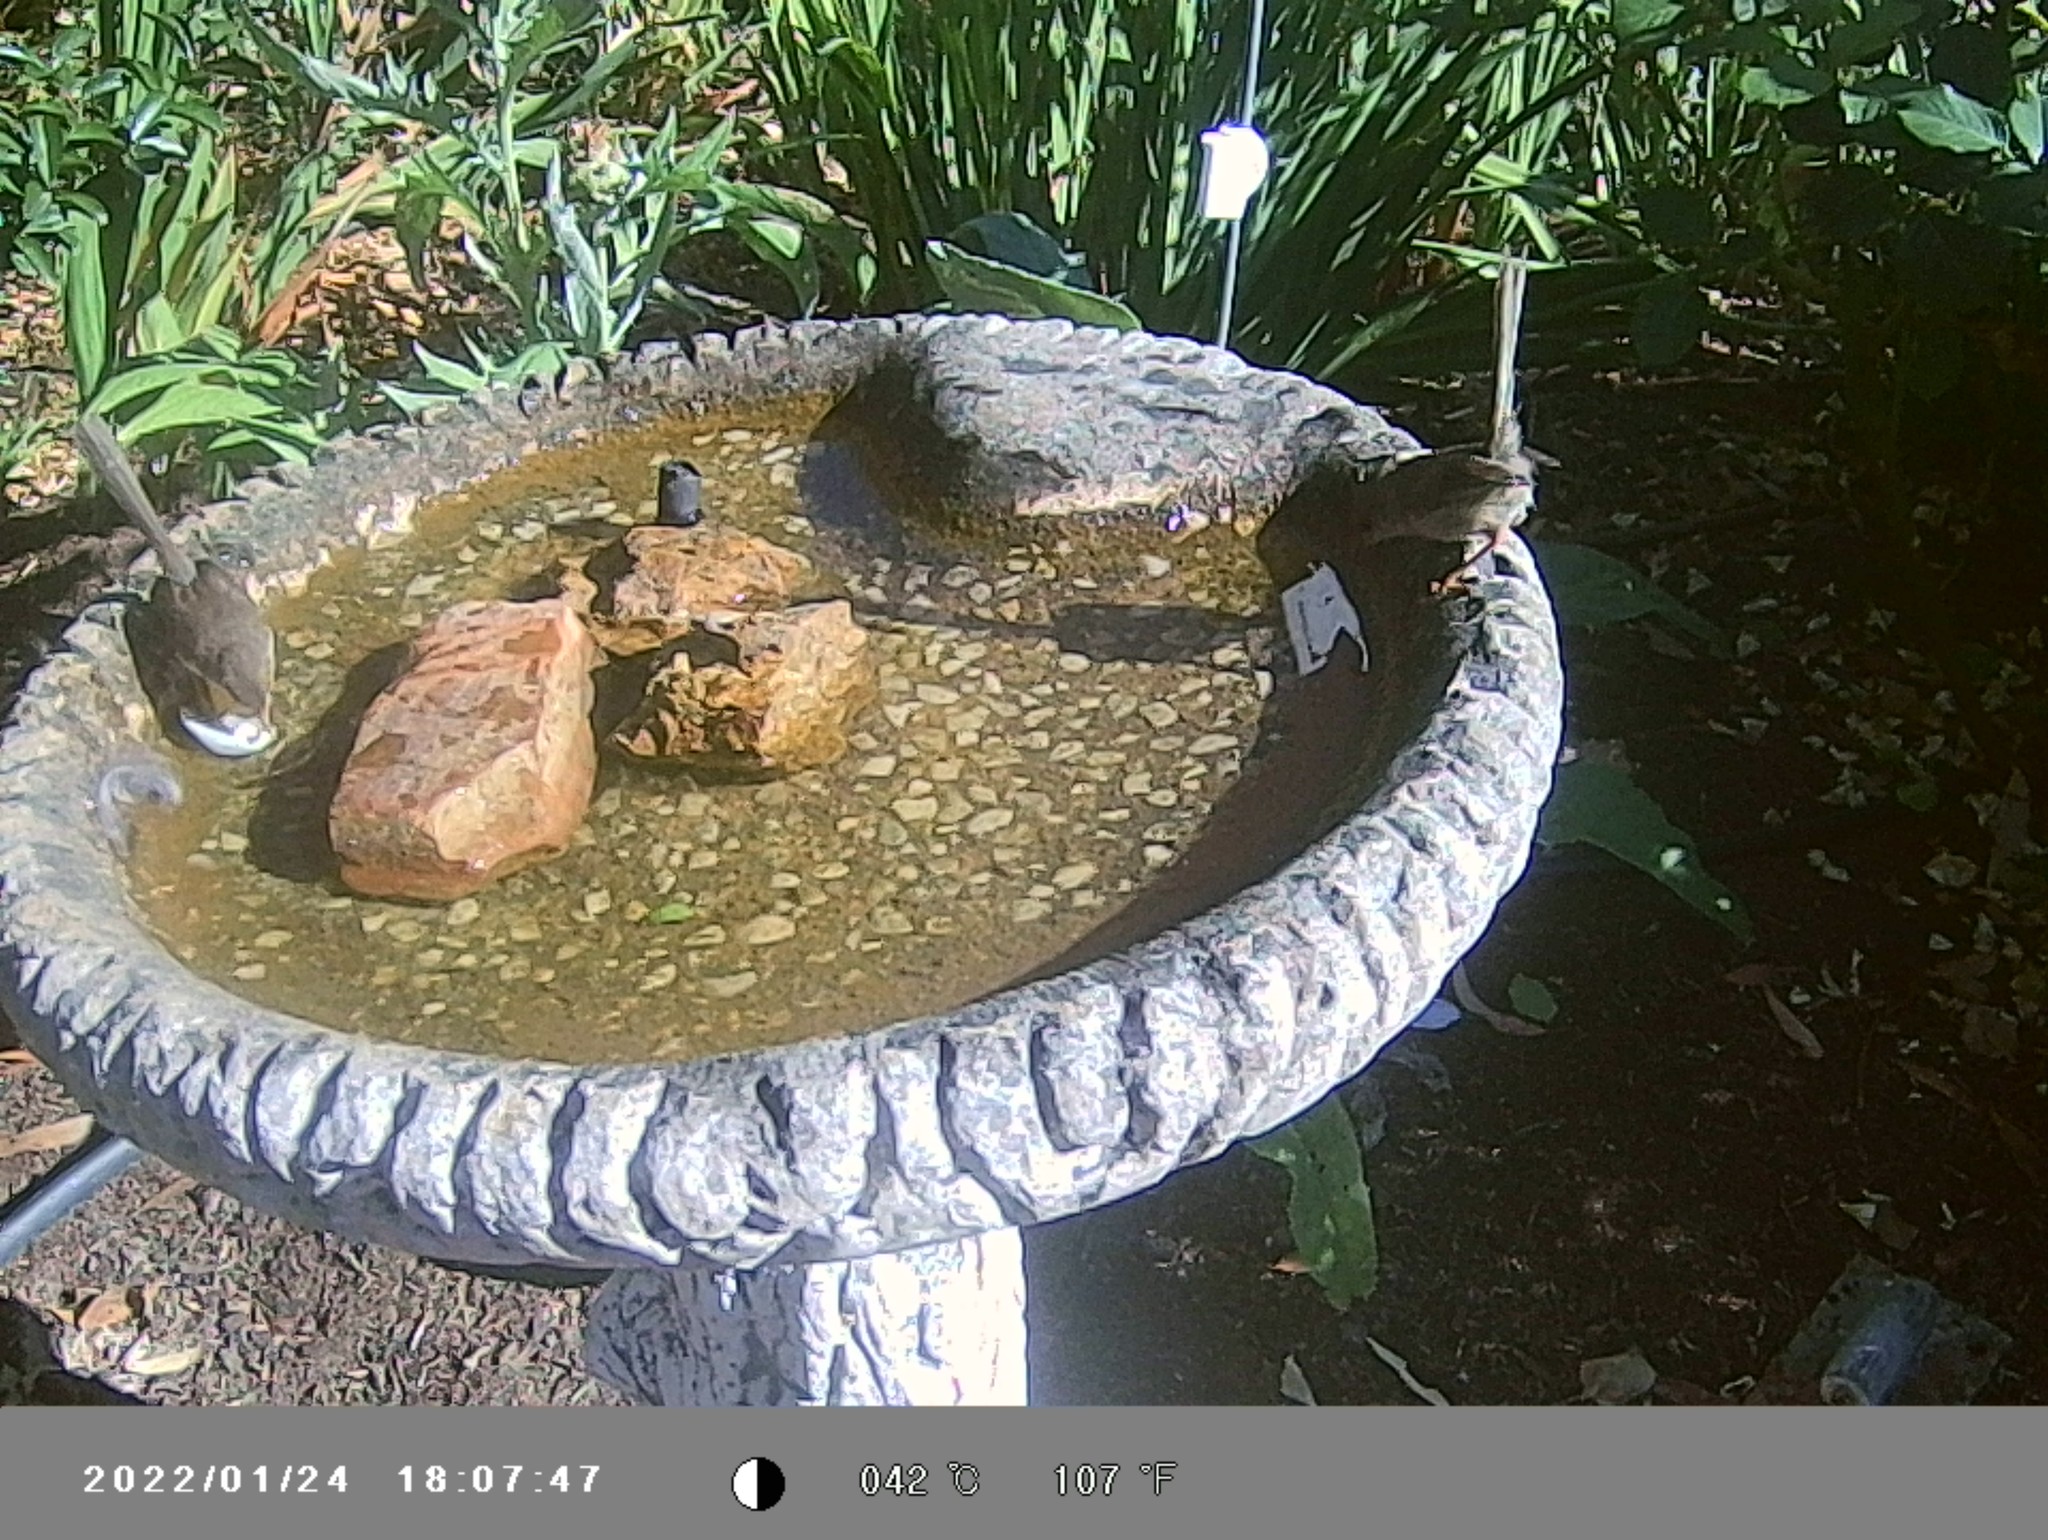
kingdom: Animalia
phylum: Chordata
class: Aves
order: Passeriformes
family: Maluridae
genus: Malurus
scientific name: Malurus cyaneus
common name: Superb fairywren
